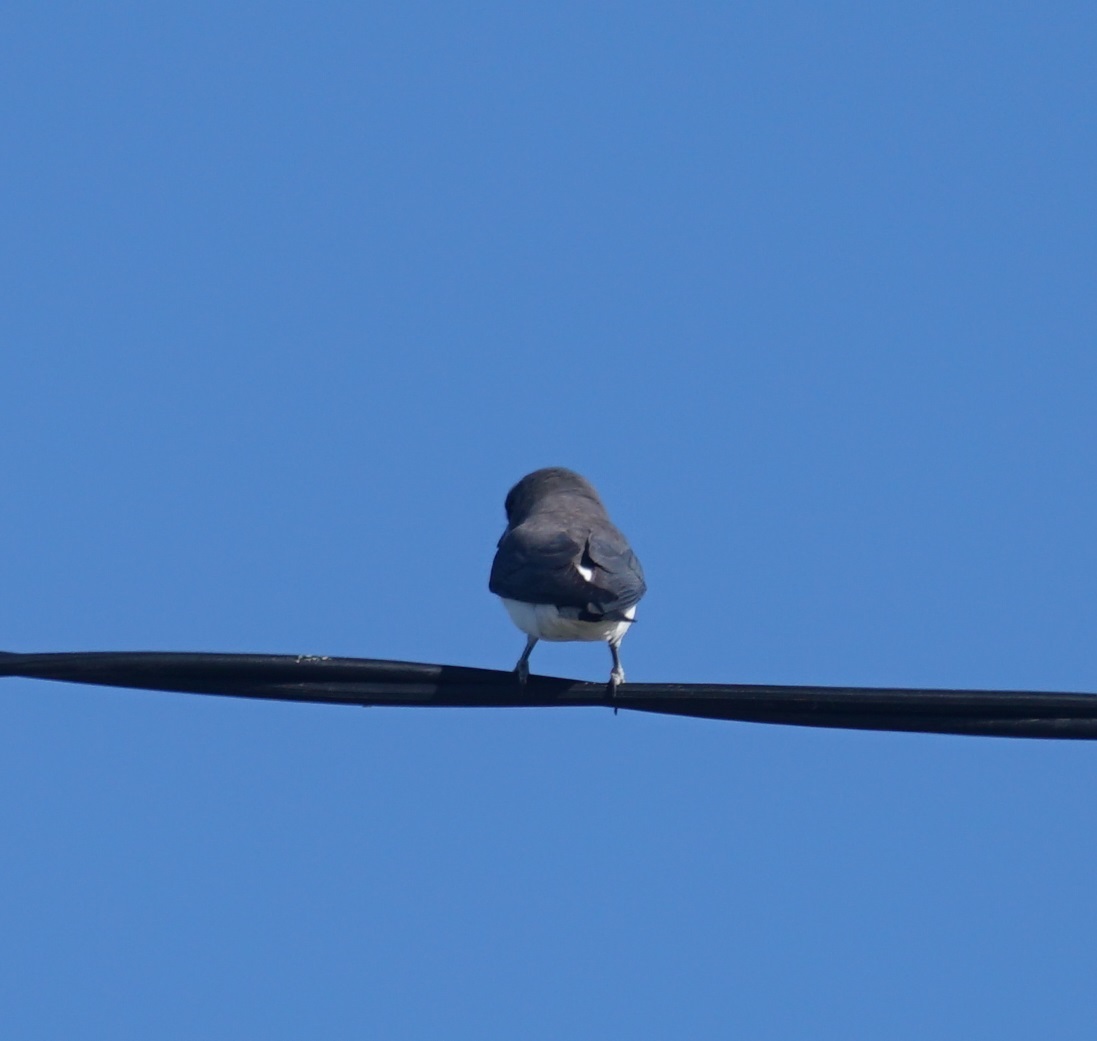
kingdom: Animalia
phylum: Chordata
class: Aves
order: Passeriformes
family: Artamidae
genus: Artamus
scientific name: Artamus leucoryn
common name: White-breasted woodswallow
